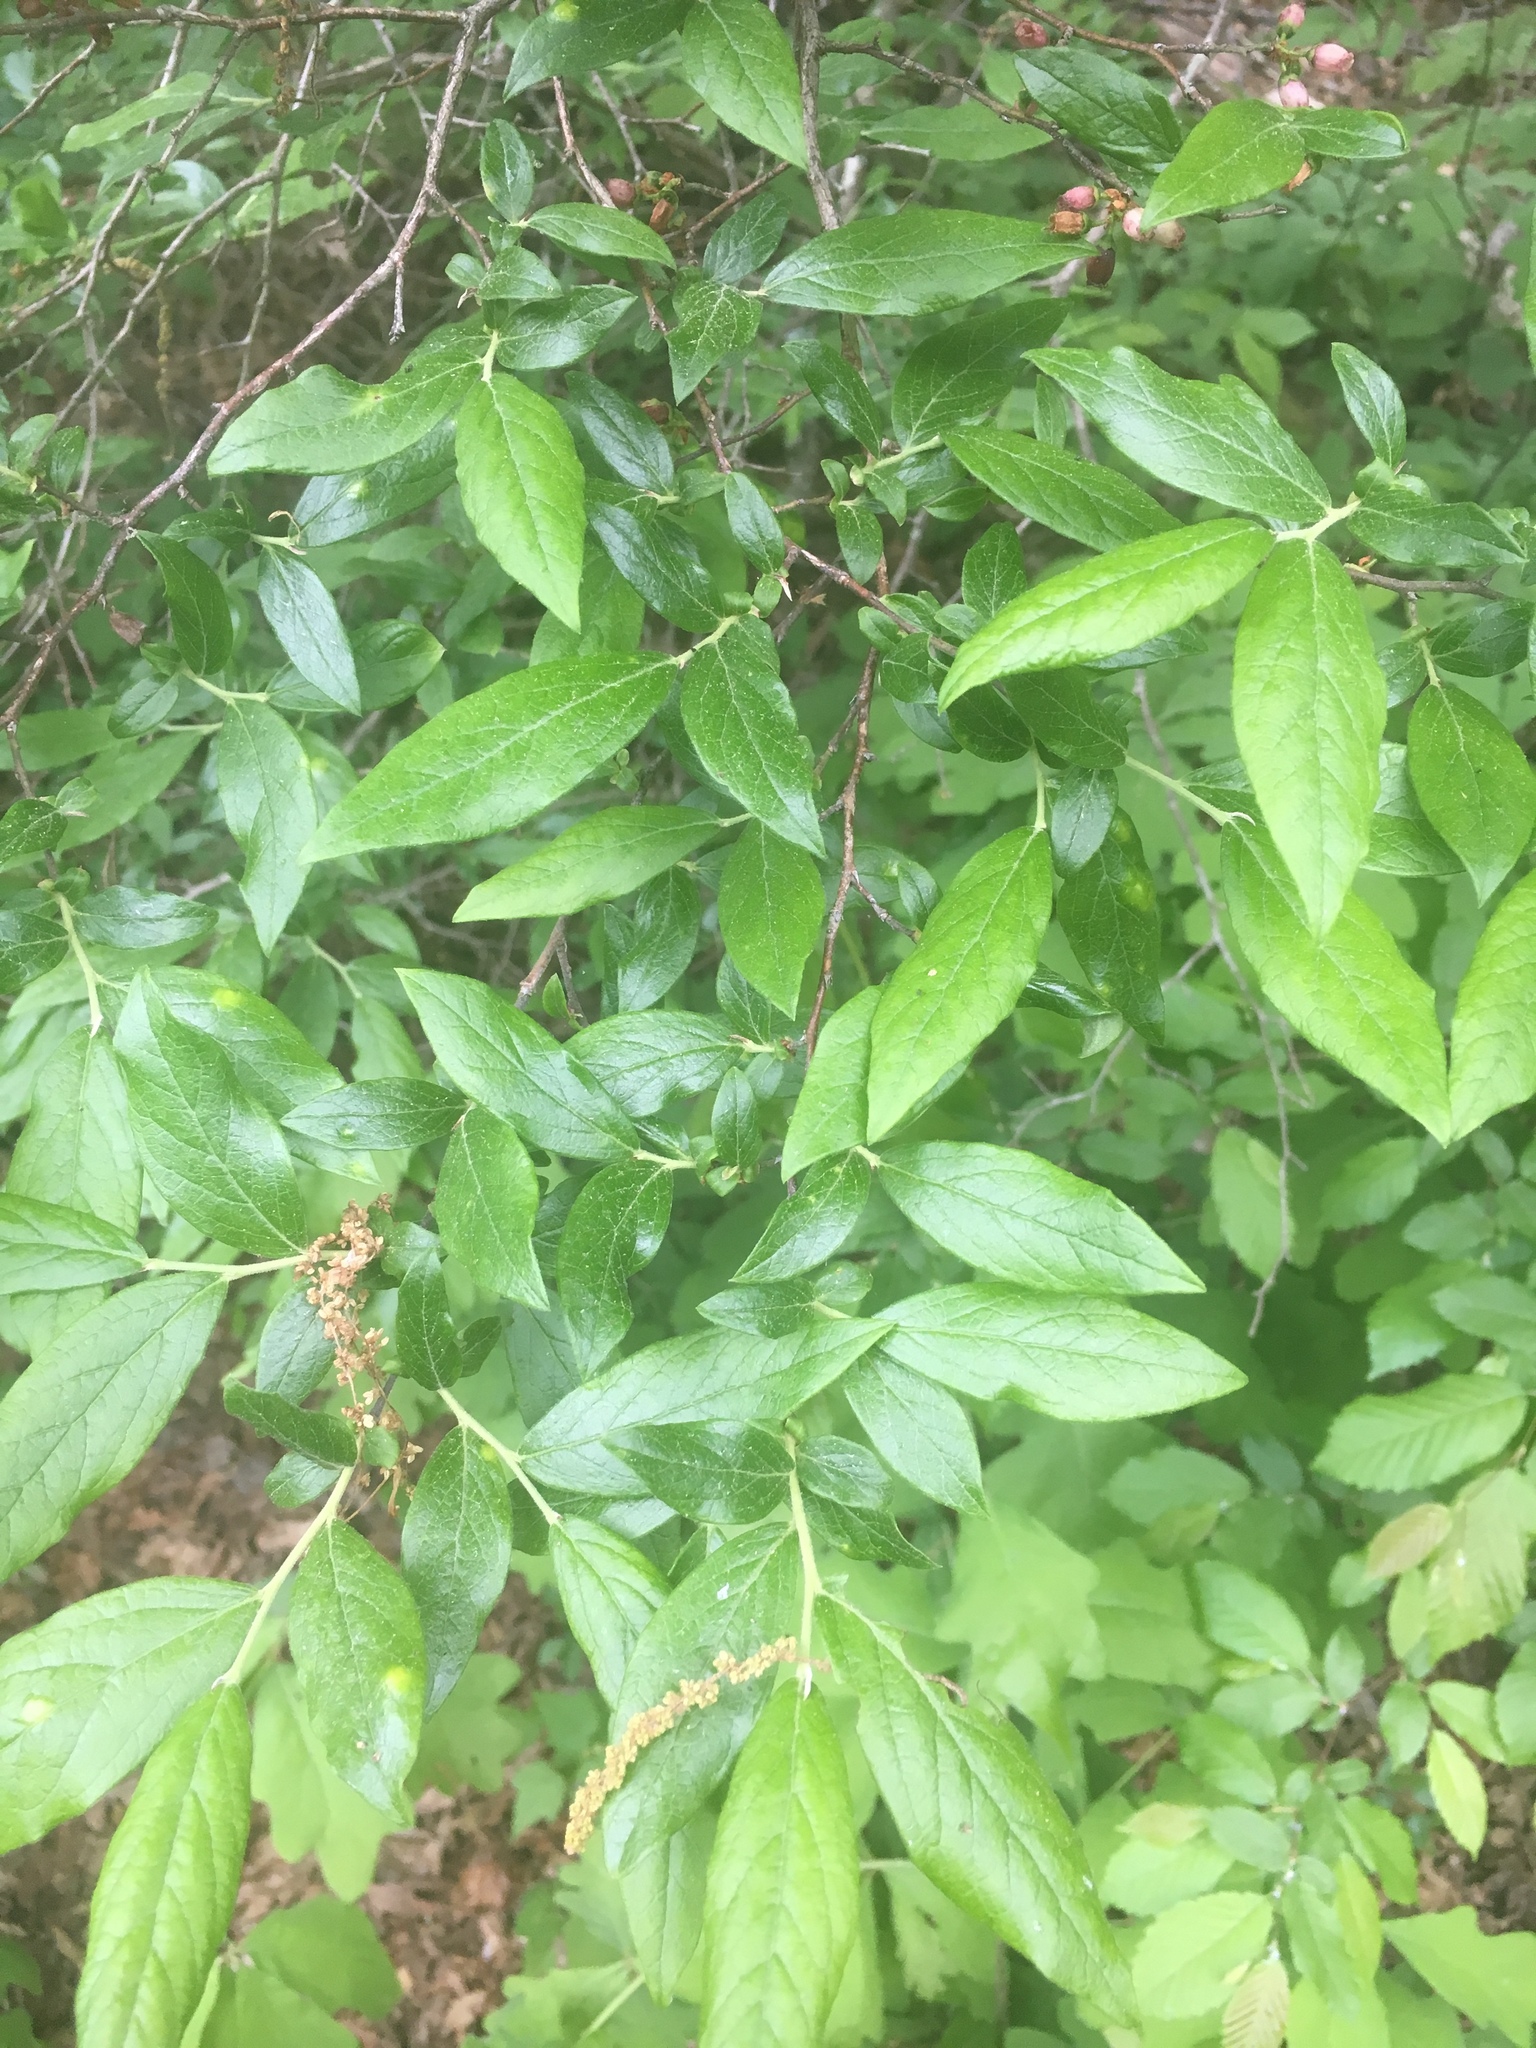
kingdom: Plantae
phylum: Tracheophyta
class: Magnoliopsida
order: Ericales
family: Ericaceae
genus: Gaylussacia
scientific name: Gaylussacia baccata
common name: Black huckleberry
